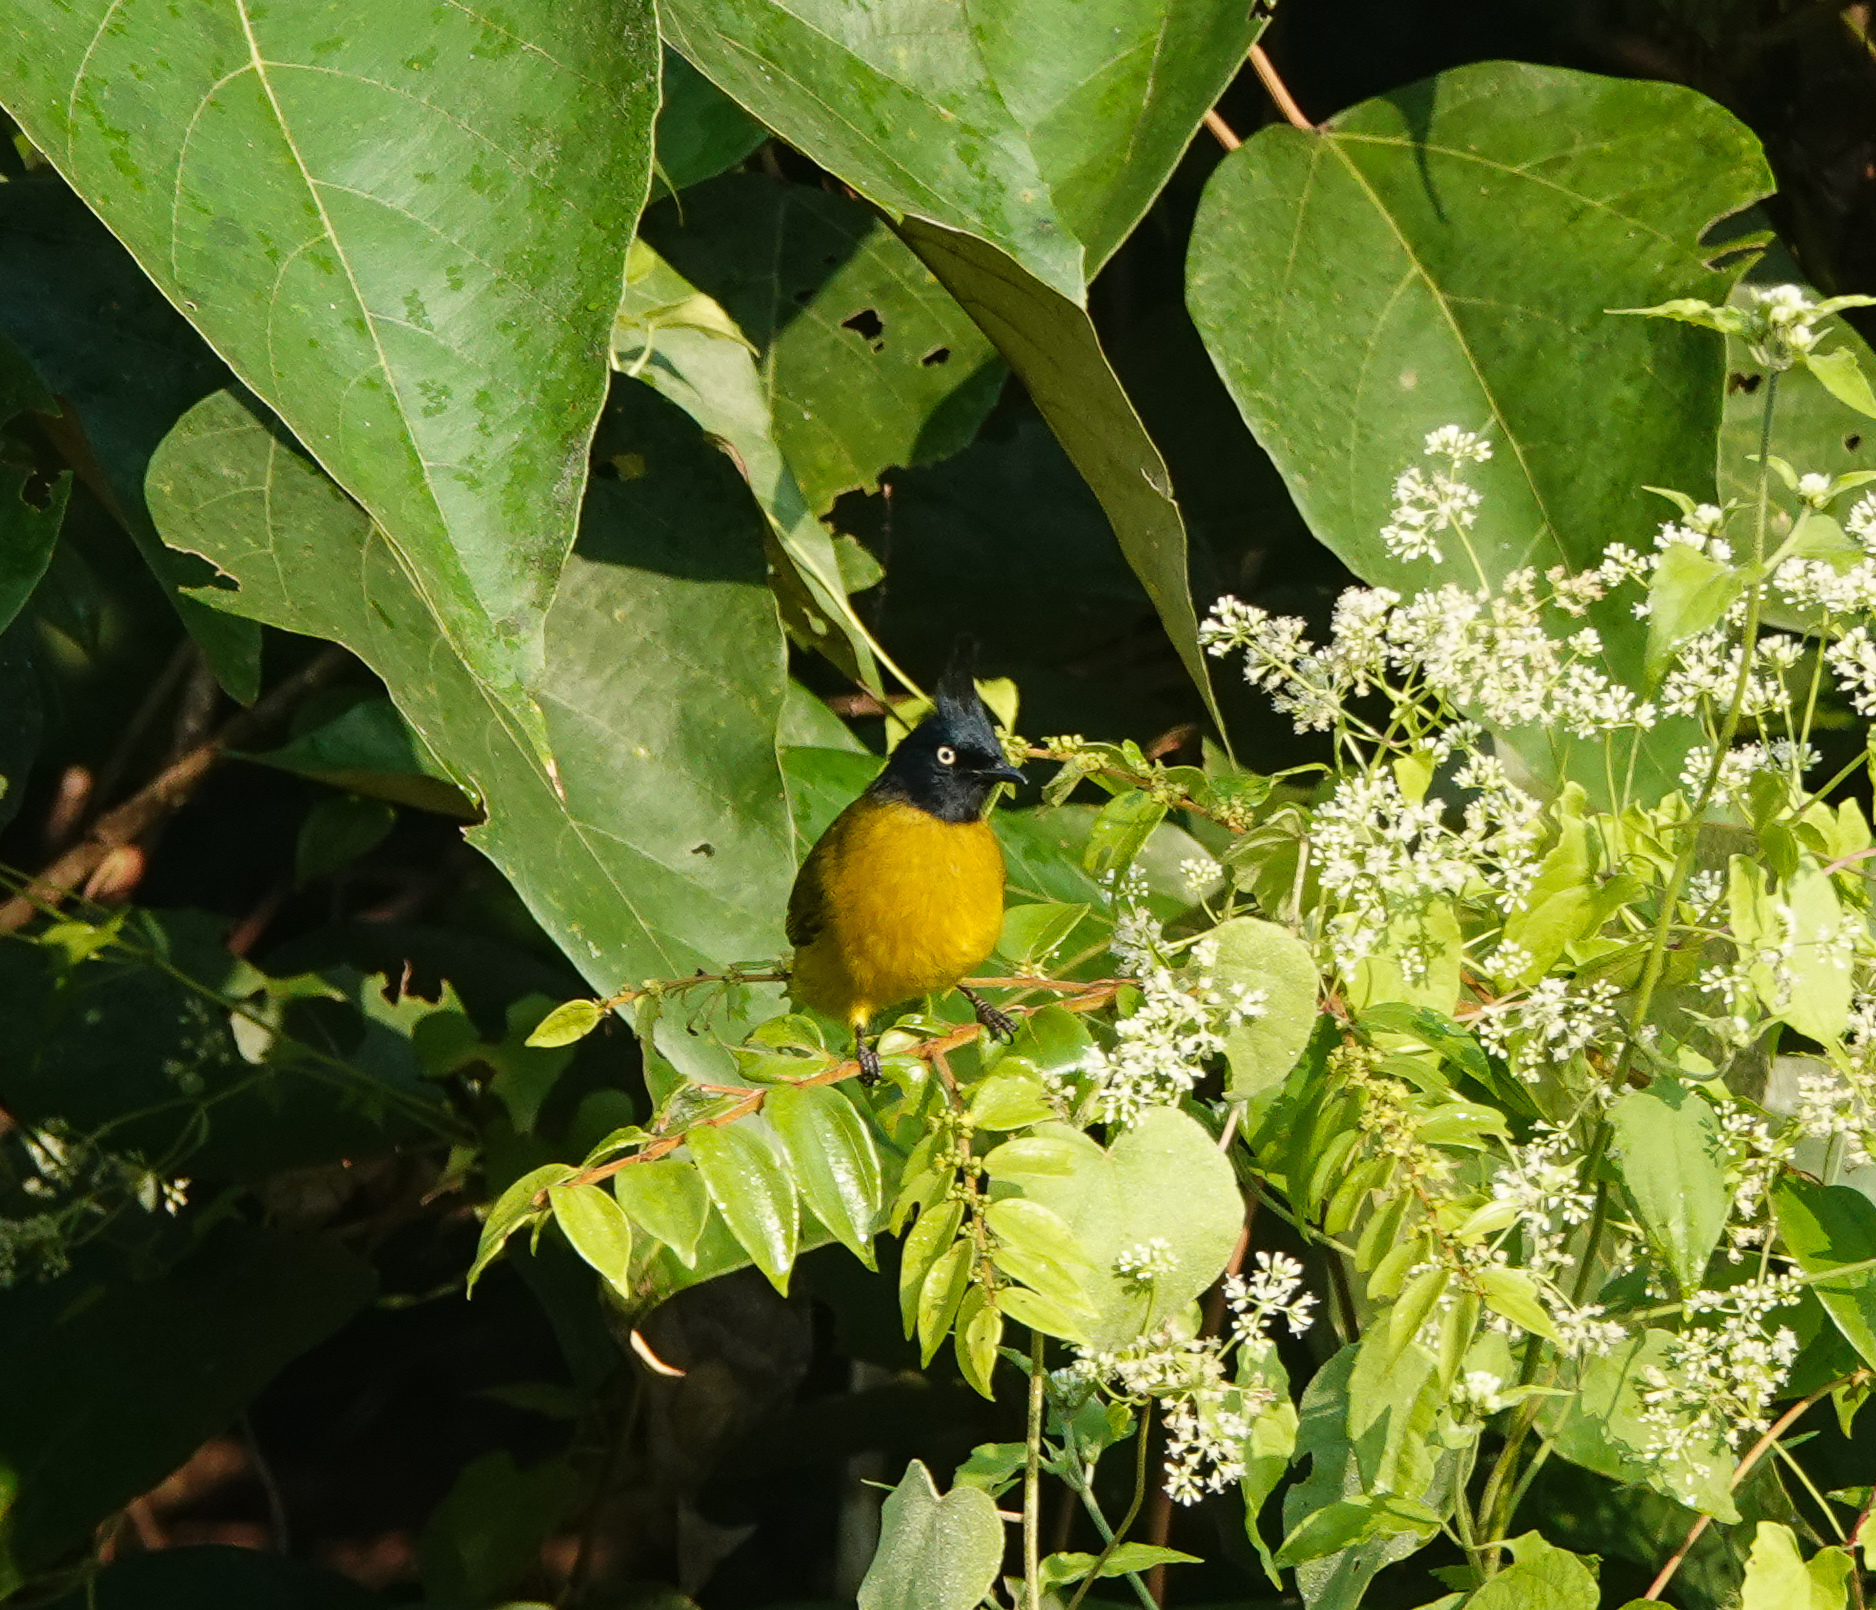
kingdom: Animalia
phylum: Chordata
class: Aves
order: Passeriformes
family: Pycnonotidae
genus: Pycnonotus
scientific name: Pycnonotus flaviventris
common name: Black-crested bulbul
